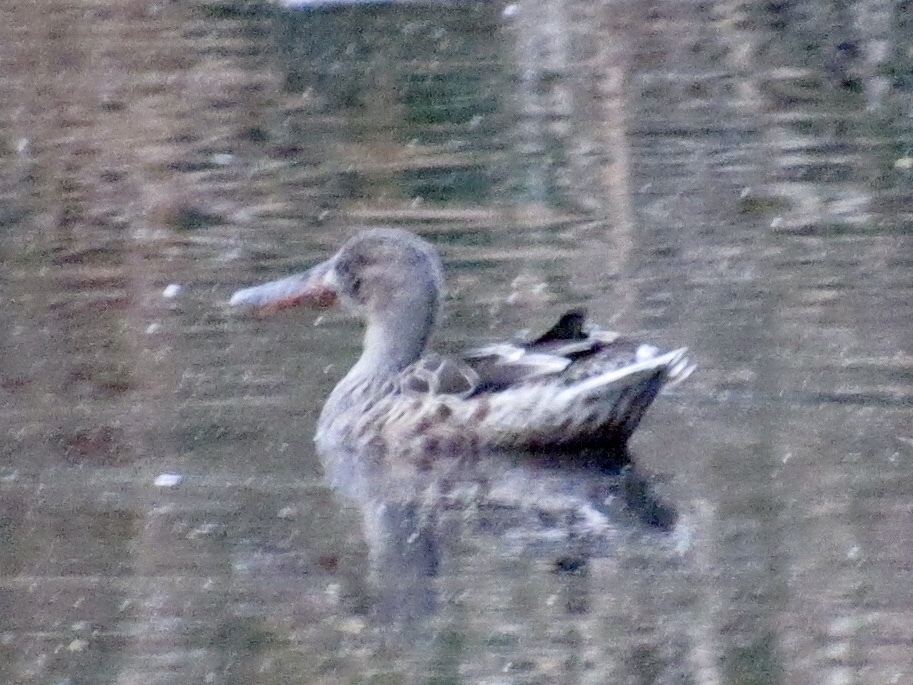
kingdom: Animalia
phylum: Chordata
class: Aves
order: Anseriformes
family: Anatidae
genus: Spatula
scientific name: Spatula clypeata
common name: Northern shoveler
